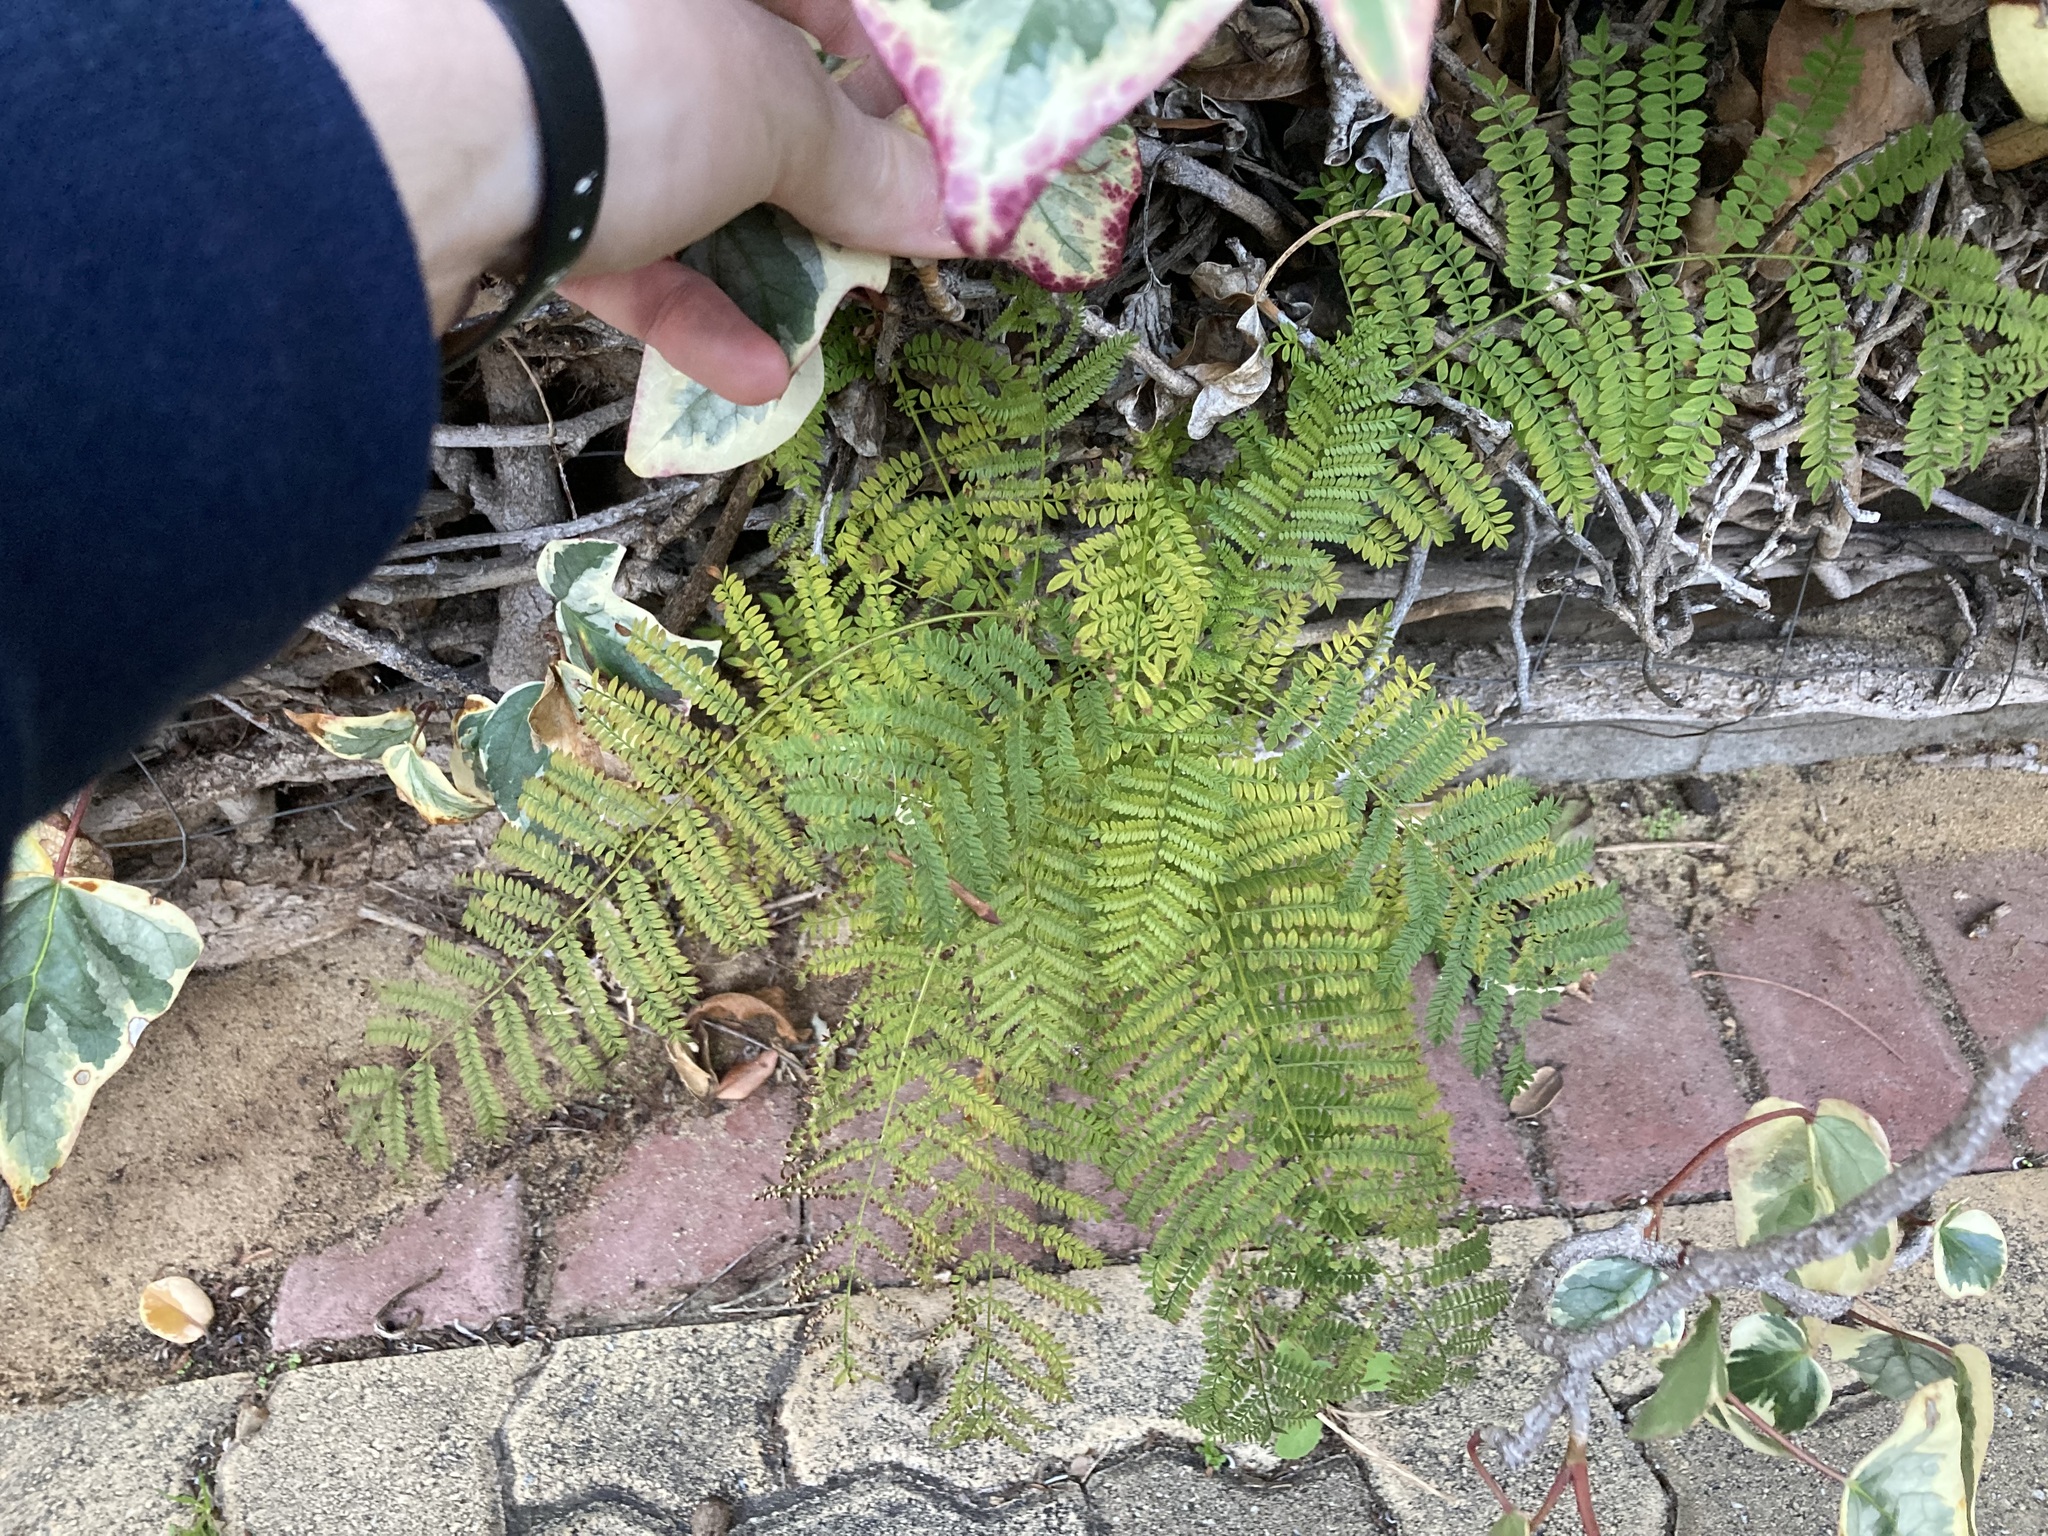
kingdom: Plantae
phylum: Tracheophyta
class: Magnoliopsida
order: Lamiales
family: Bignoniaceae
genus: Jacaranda
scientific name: Jacaranda mimosifolia
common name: Black poui
